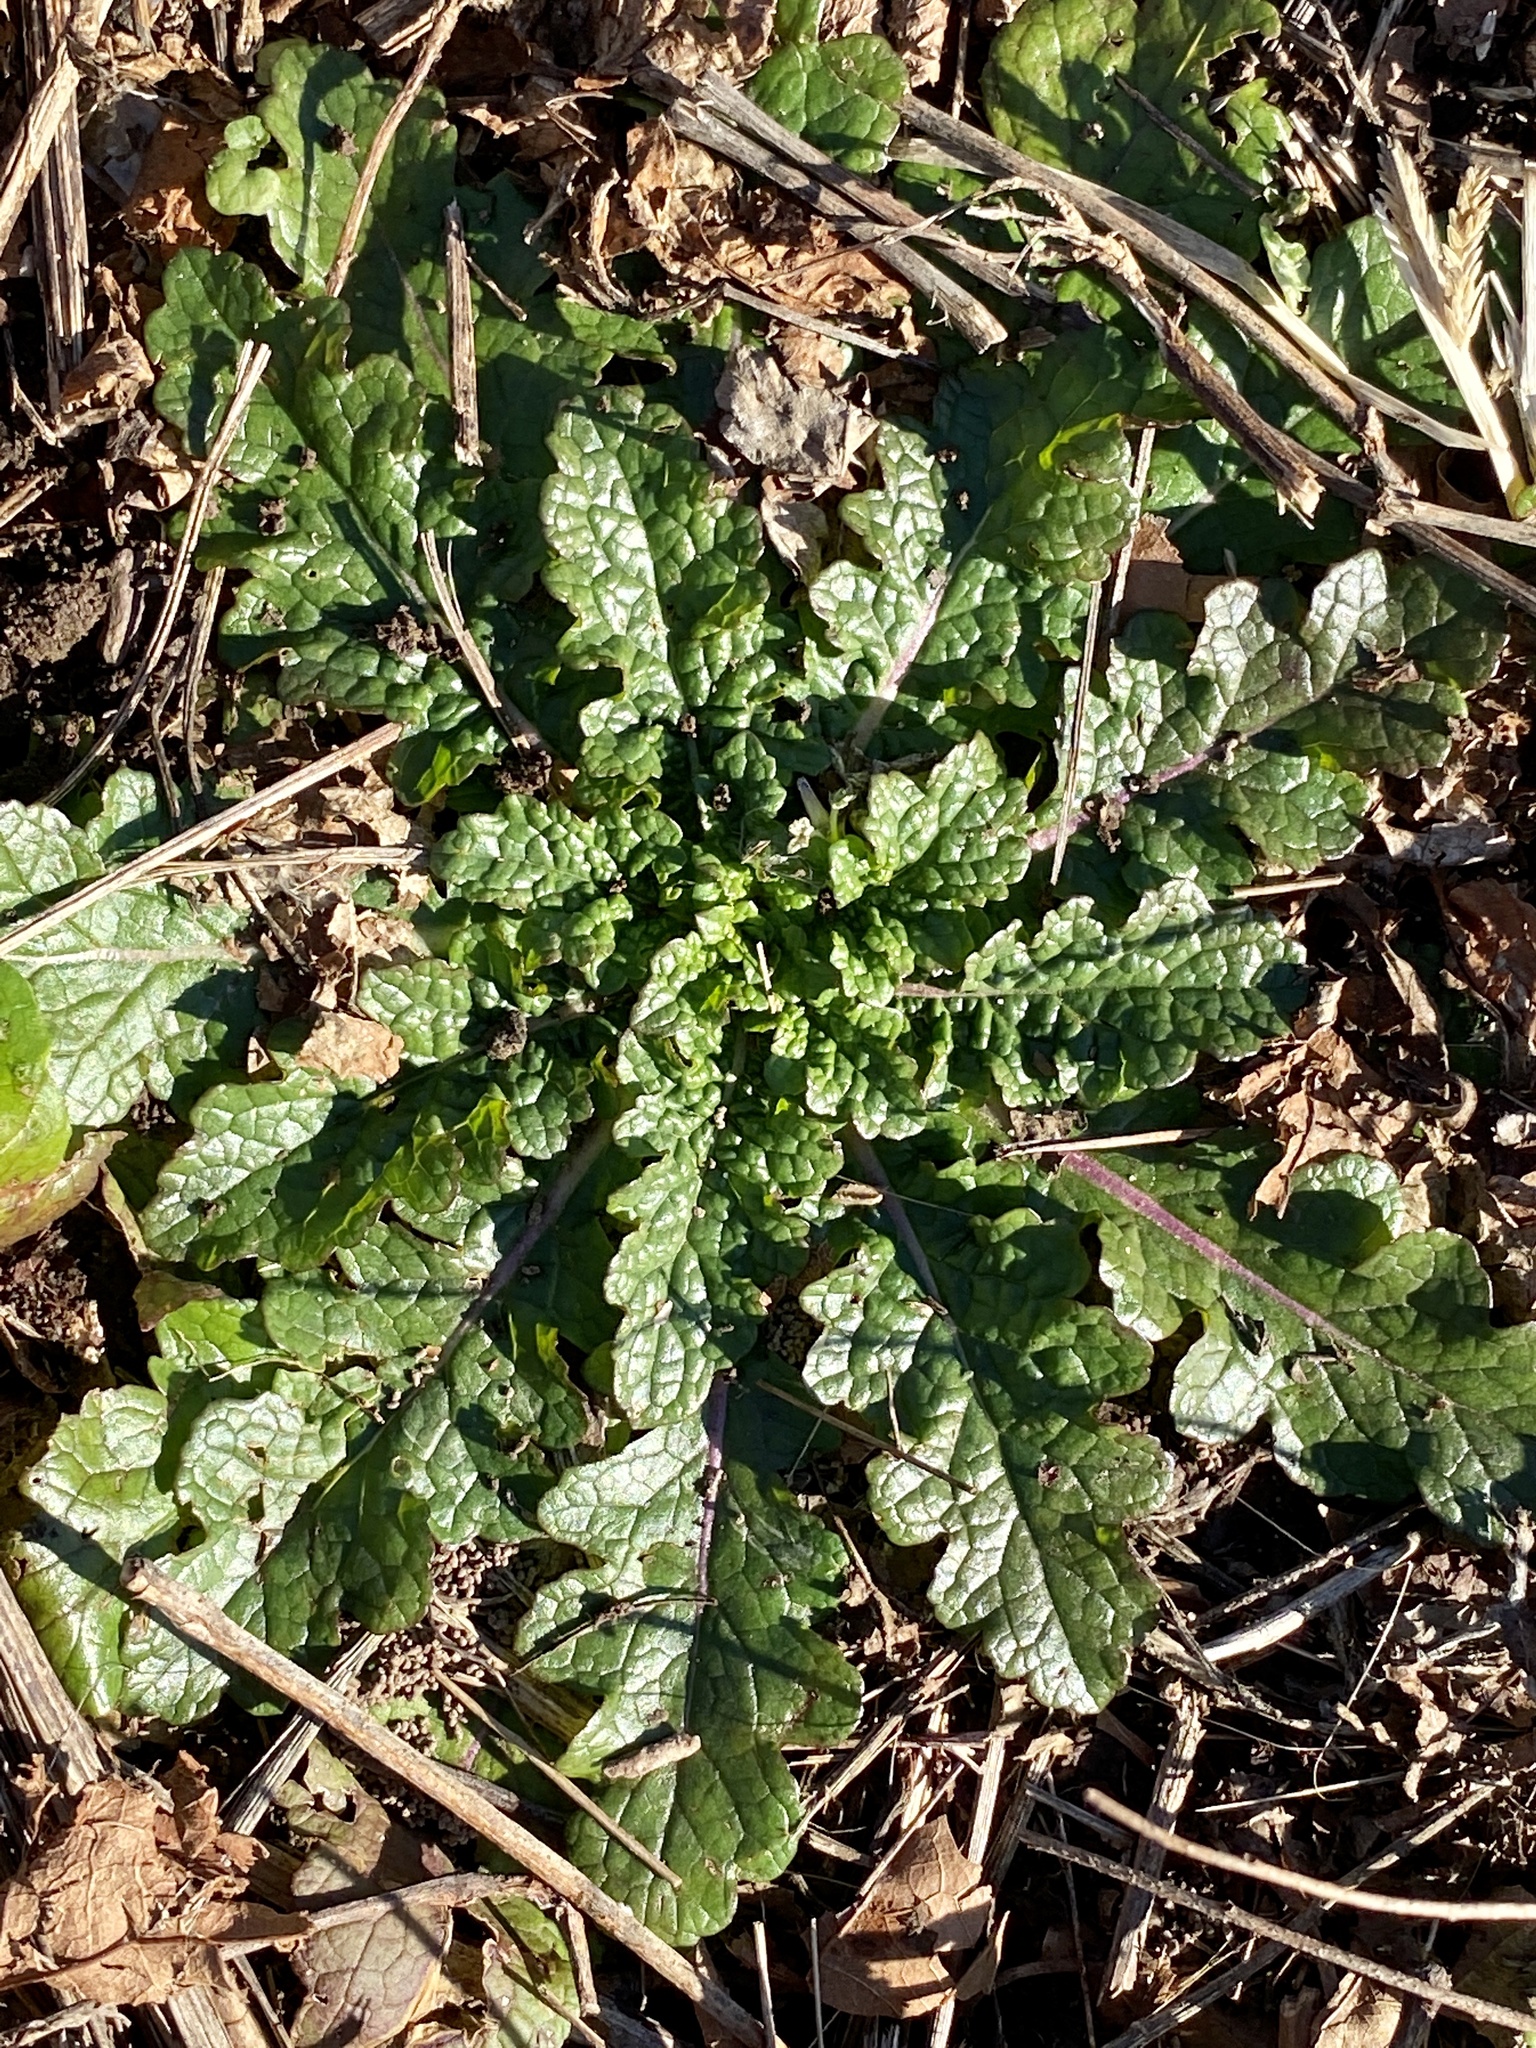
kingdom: Plantae
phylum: Tracheophyta
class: Magnoliopsida
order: Lamiales
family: Scrophulariaceae
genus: Verbascum
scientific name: Verbascum blattaria
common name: Moth mullein
